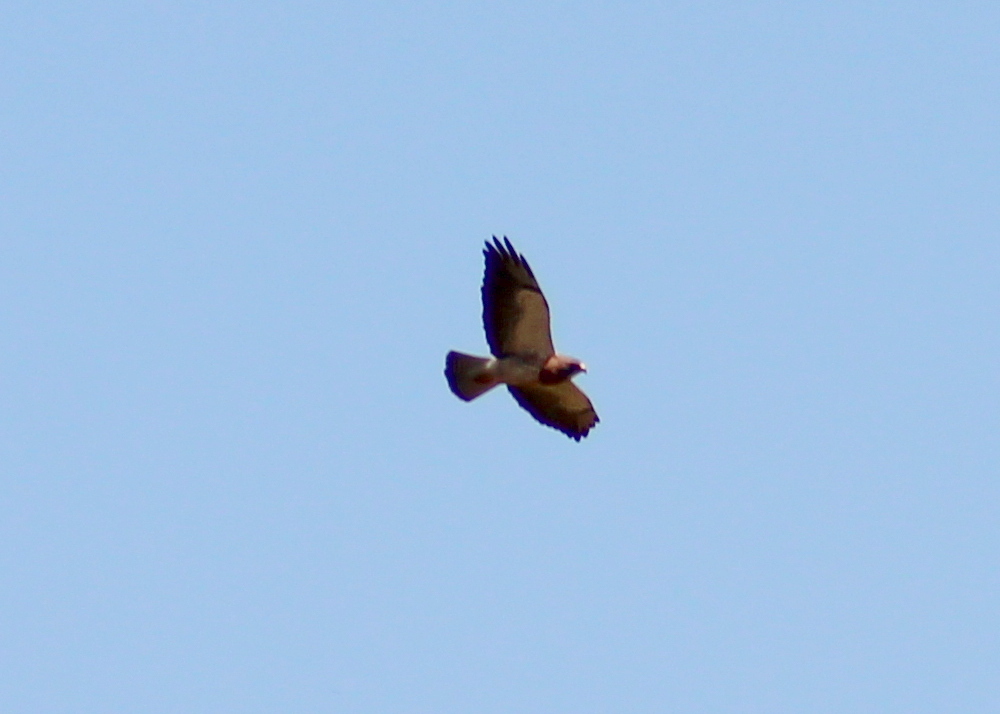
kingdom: Animalia
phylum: Chordata
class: Aves
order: Accipitriformes
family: Accipitridae
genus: Buteo
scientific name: Buteo swainsoni
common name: Swainson's hawk
